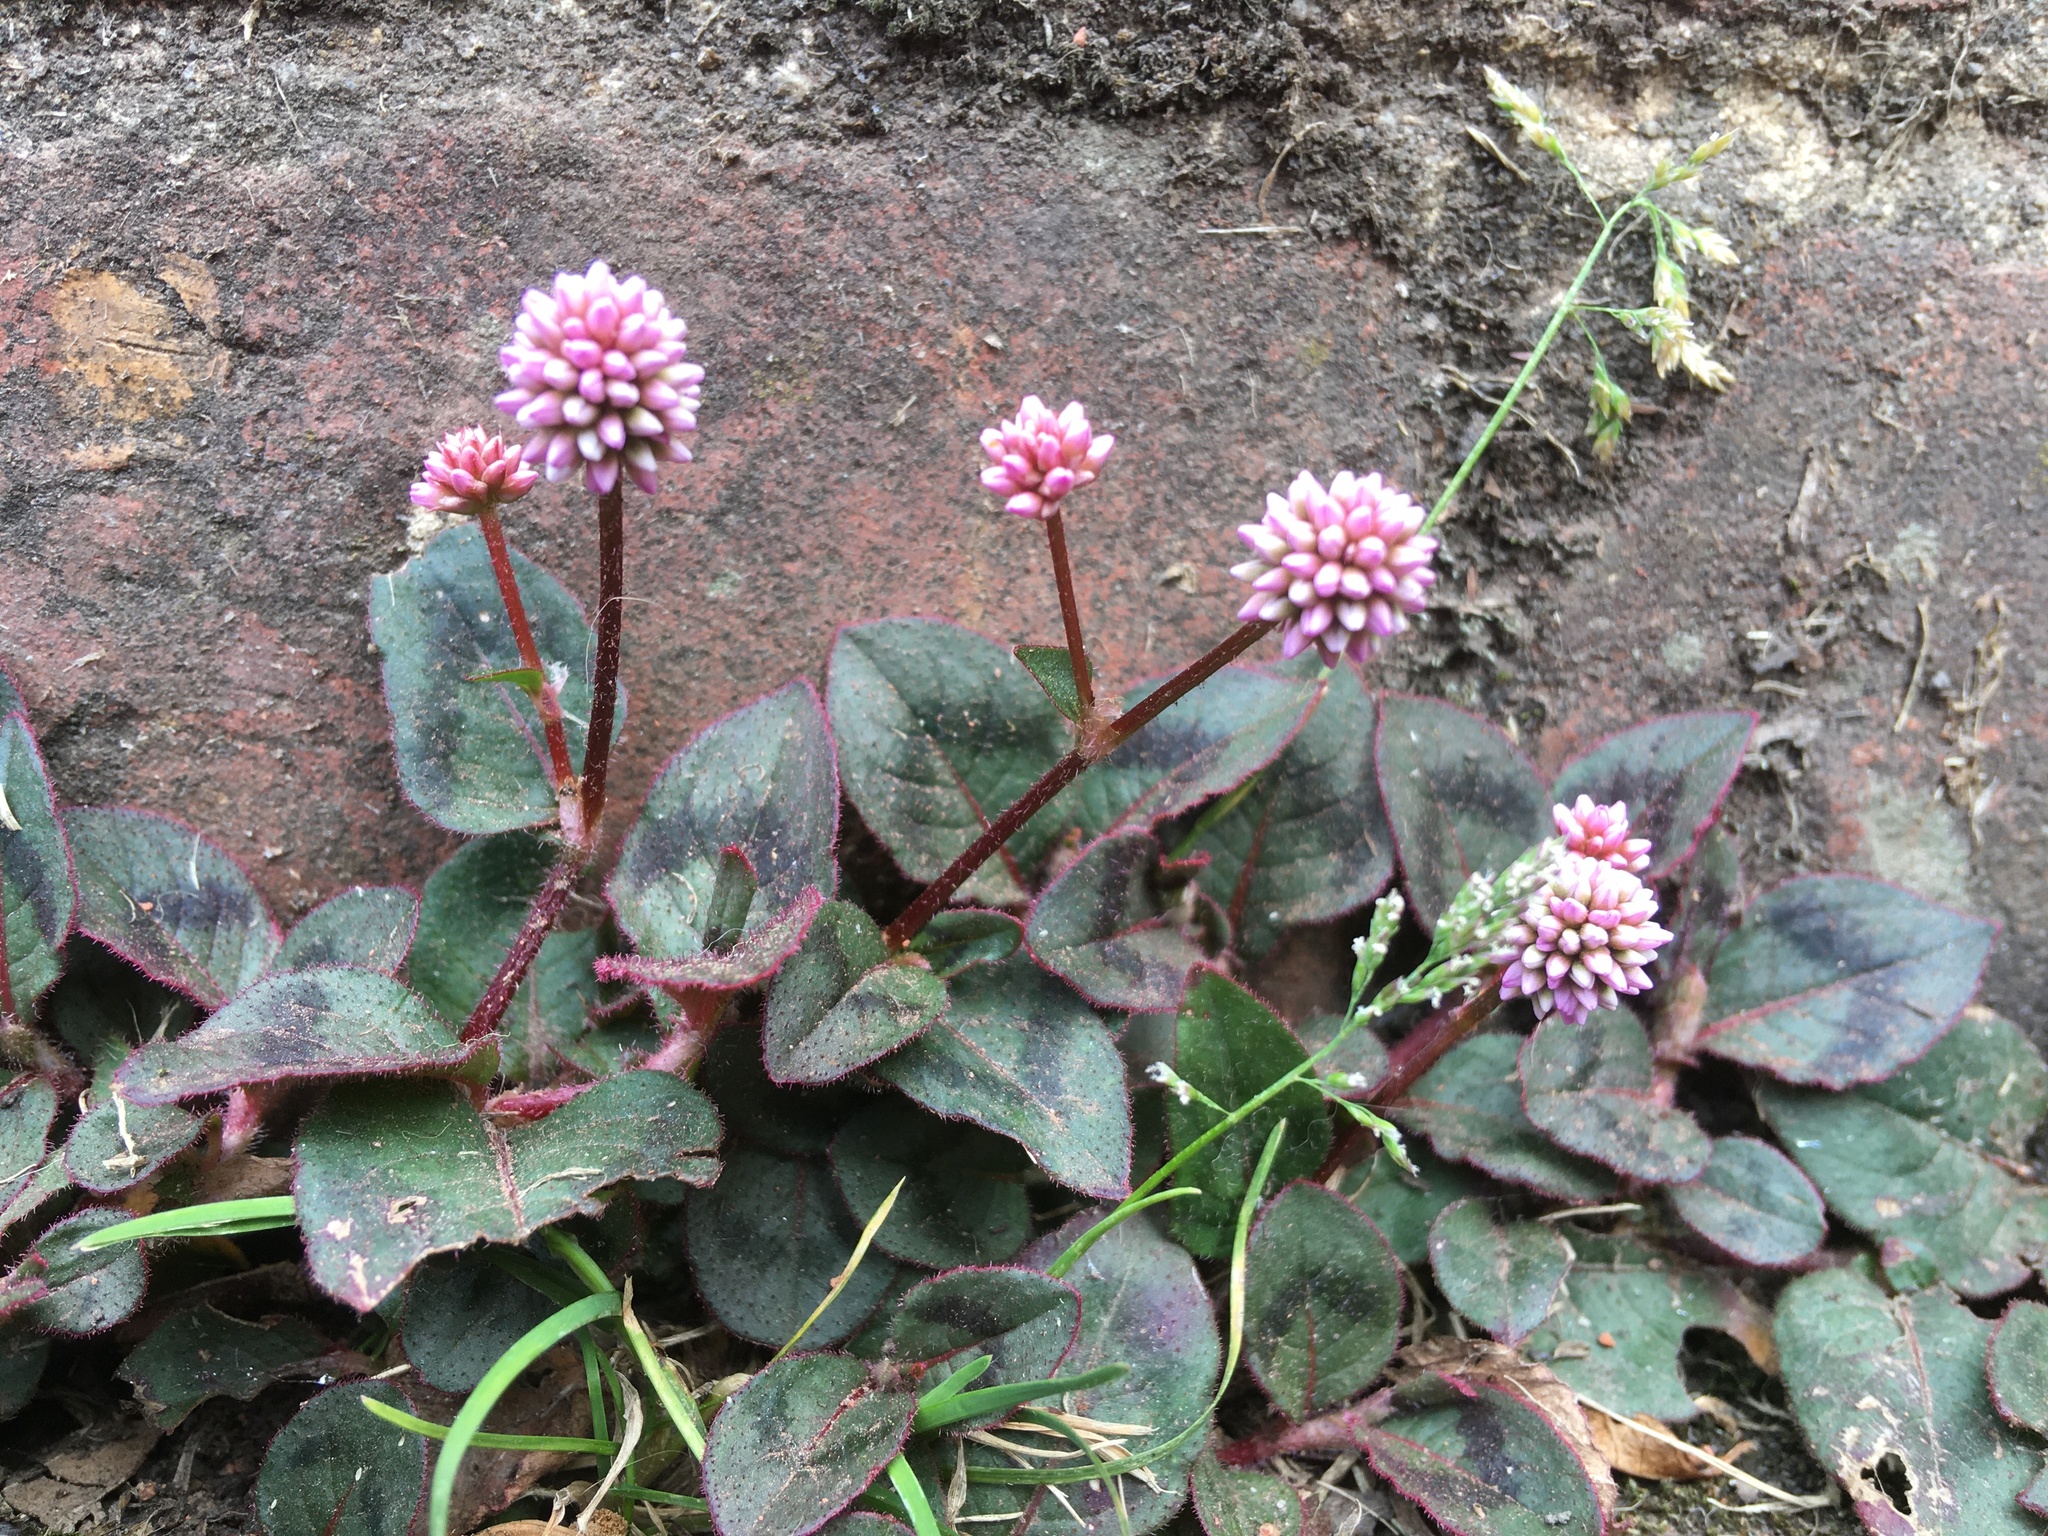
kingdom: Plantae
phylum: Tracheophyta
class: Magnoliopsida
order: Caryophyllales
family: Polygonaceae
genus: Persicaria
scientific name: Persicaria capitata
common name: Pinkhead smartweed
